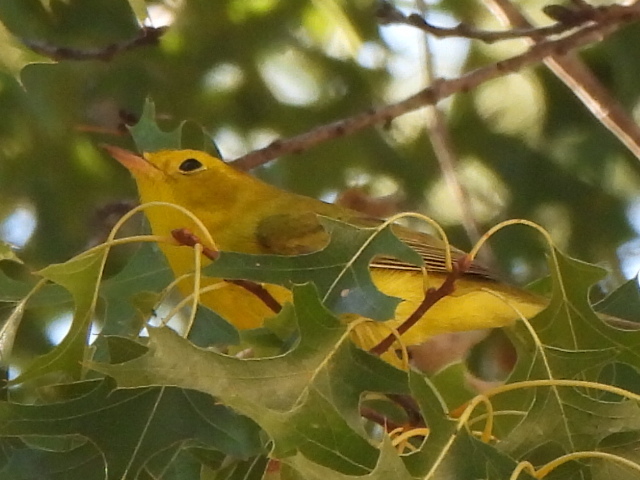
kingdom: Animalia
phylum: Chordata
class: Aves
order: Passeriformes
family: Parulidae
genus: Cardellina
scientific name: Cardellina pusilla
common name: Wilson's warbler
